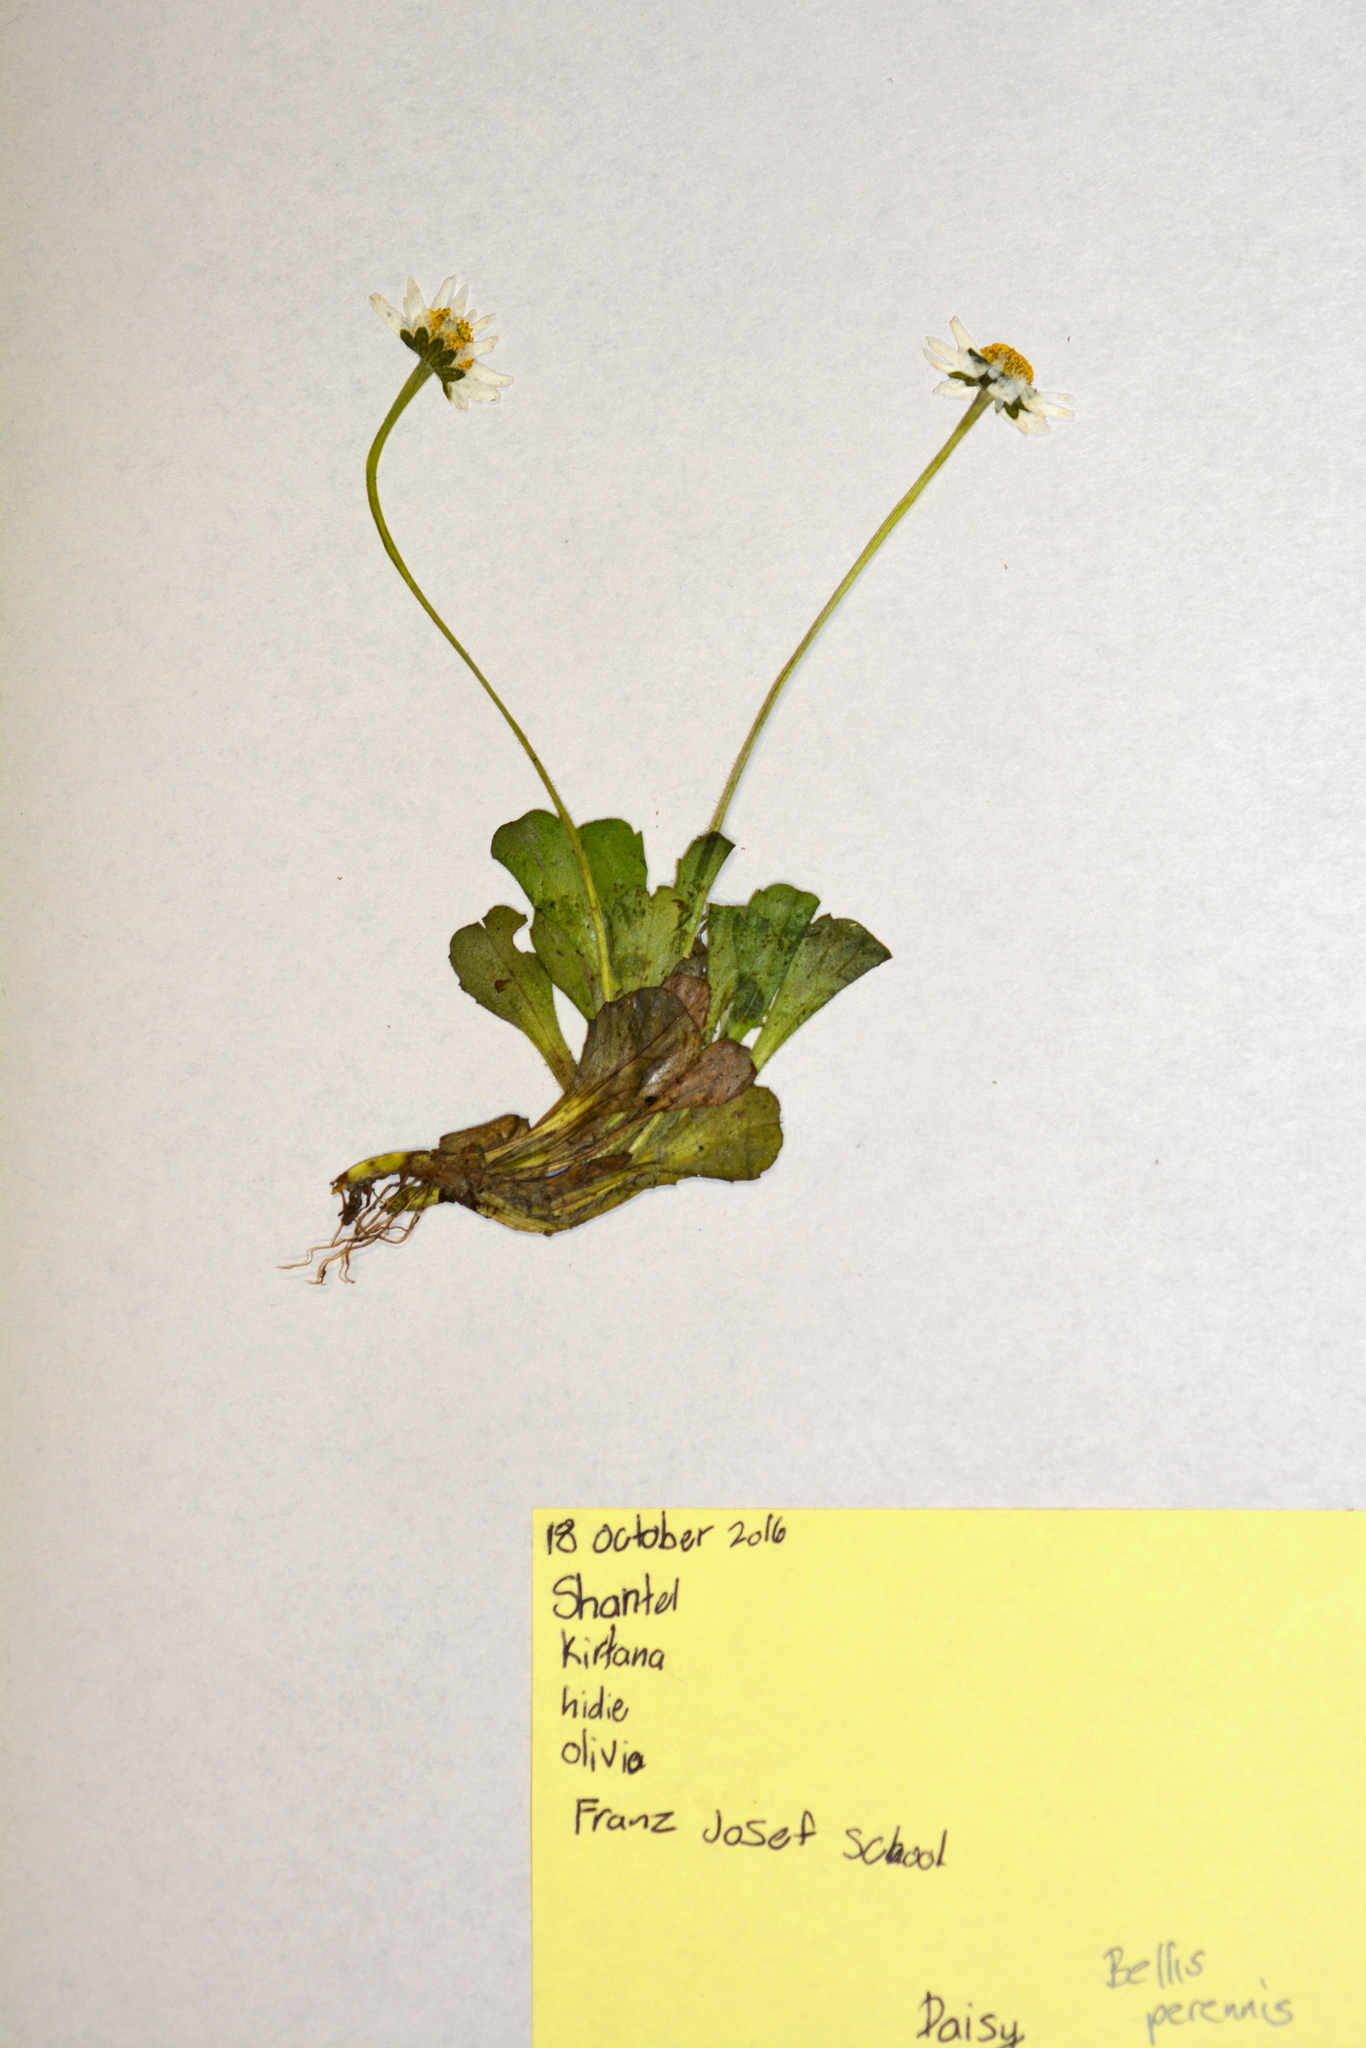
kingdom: Plantae
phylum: Tracheophyta
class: Magnoliopsida
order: Asterales
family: Asteraceae
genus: Bellis
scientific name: Bellis perennis
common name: Lawndaisy
